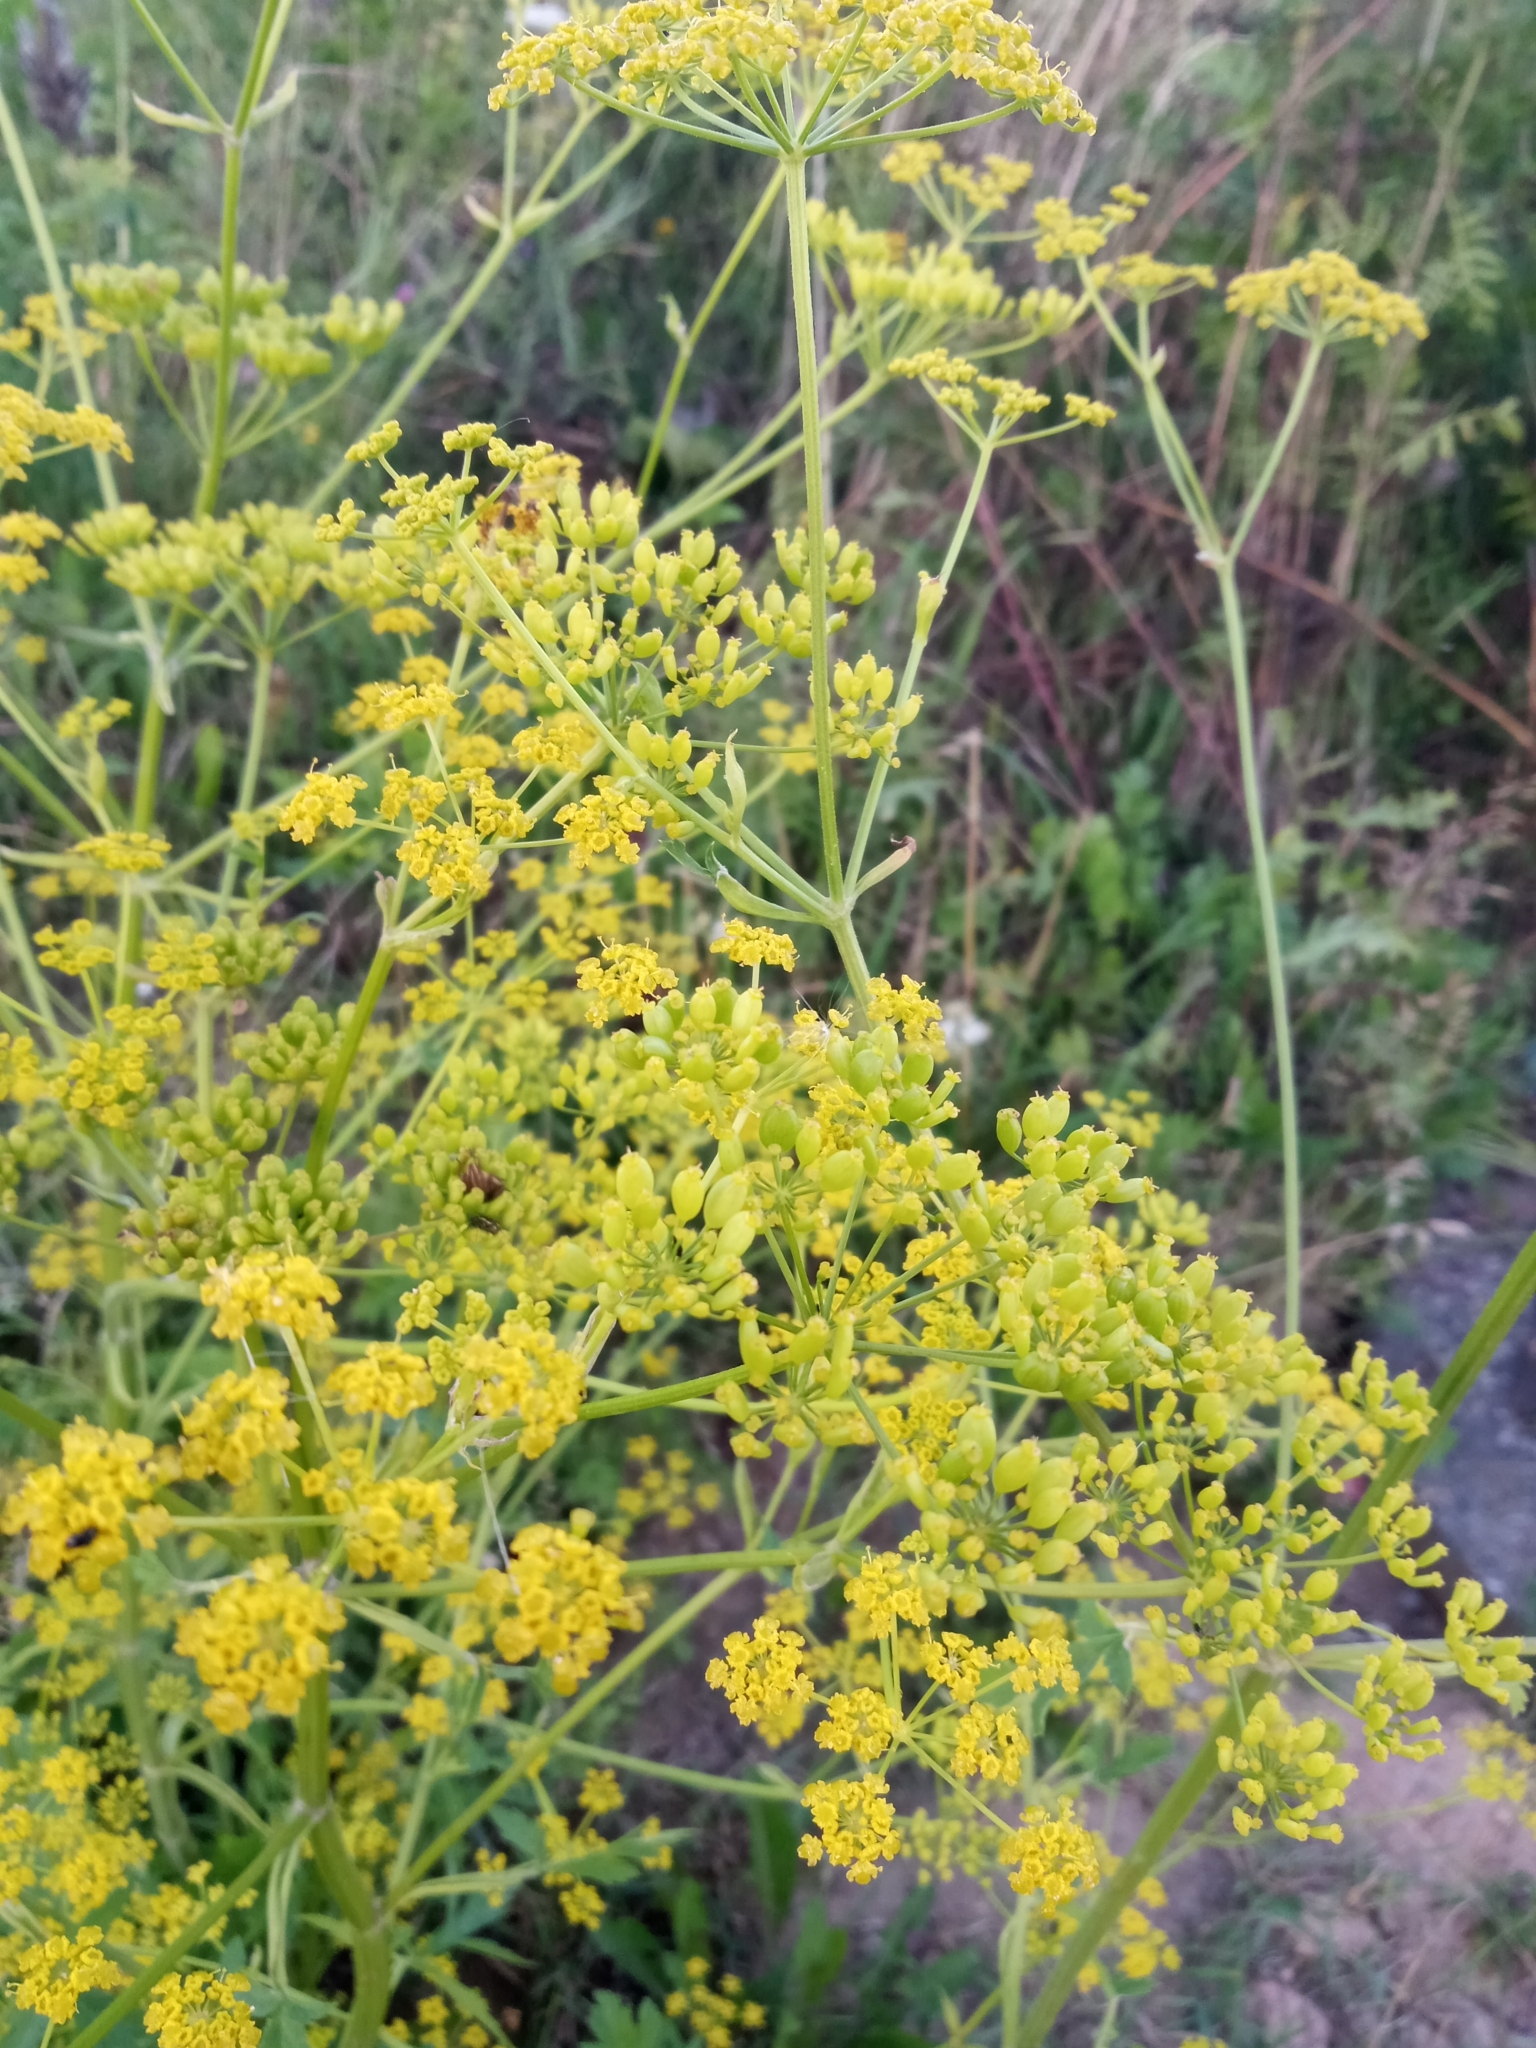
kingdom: Plantae
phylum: Tracheophyta
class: Magnoliopsida
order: Apiales
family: Apiaceae
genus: Pastinaca
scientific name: Pastinaca sativa
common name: Wild parsnip
